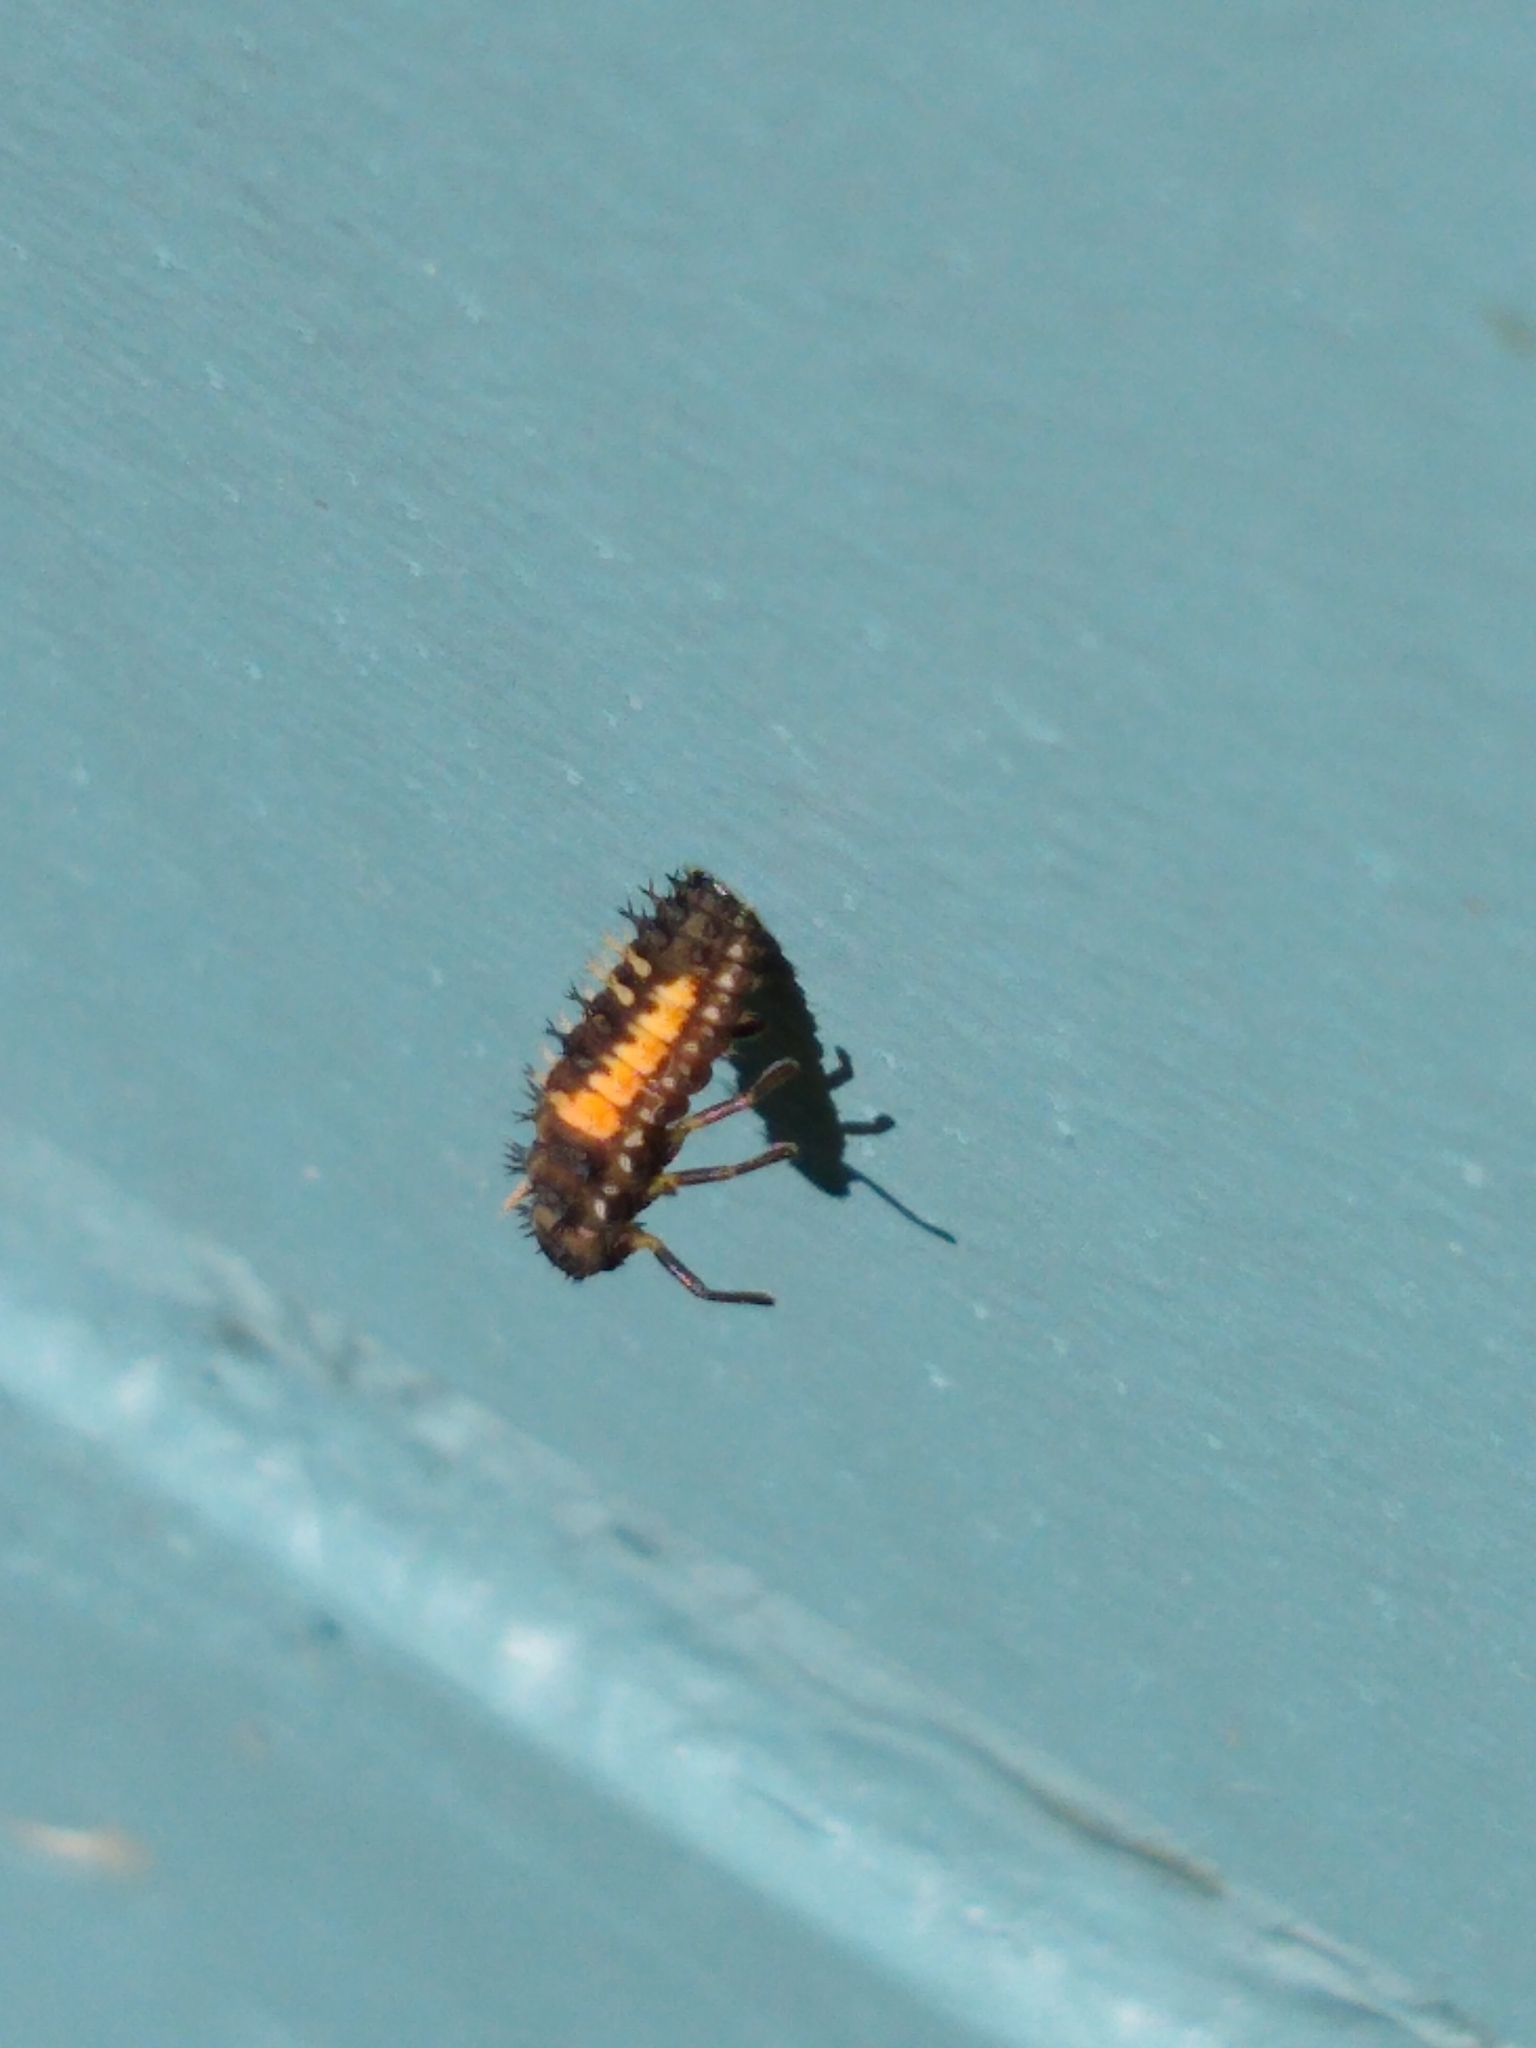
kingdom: Animalia
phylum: Arthropoda
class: Insecta
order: Coleoptera
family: Coccinellidae
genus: Harmonia
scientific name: Harmonia axyridis
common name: Harlequin ladybird
